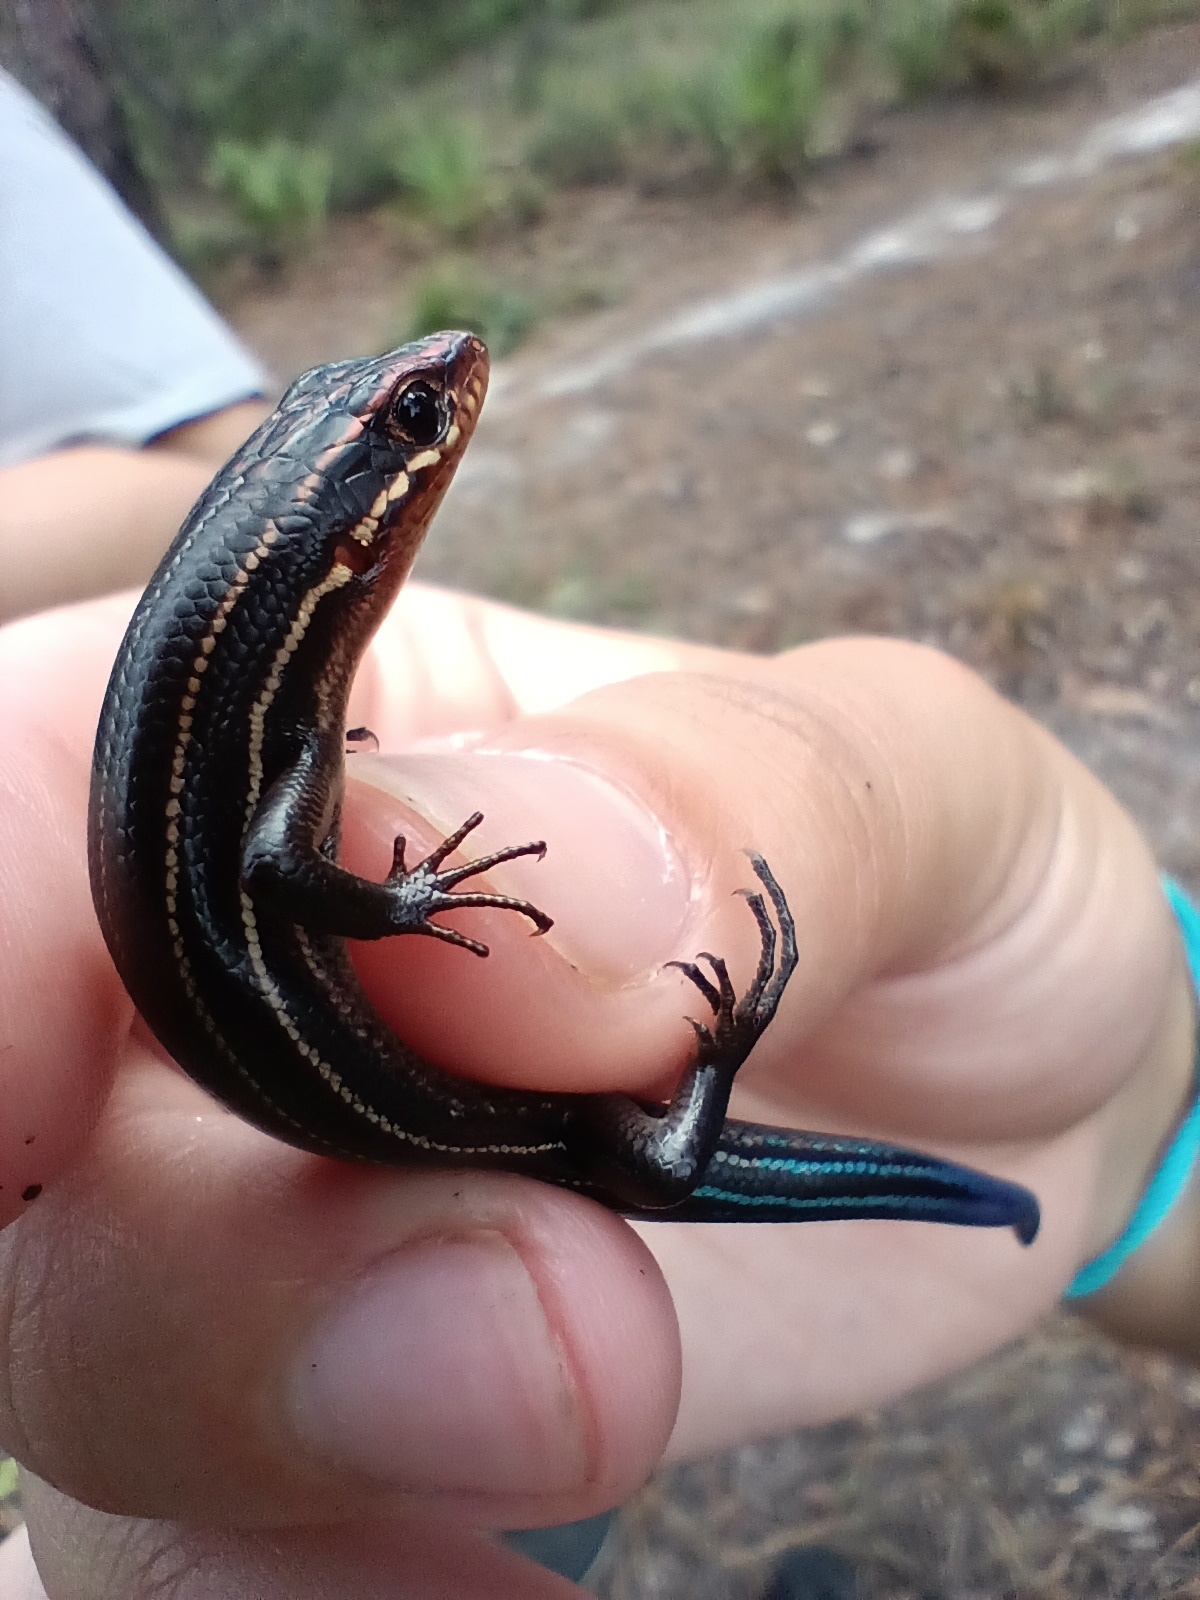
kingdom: Animalia
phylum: Chordata
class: Squamata
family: Scincidae
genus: Plestiodon
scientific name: Plestiodon inexpectatus
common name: Southeastern five-lined skink
